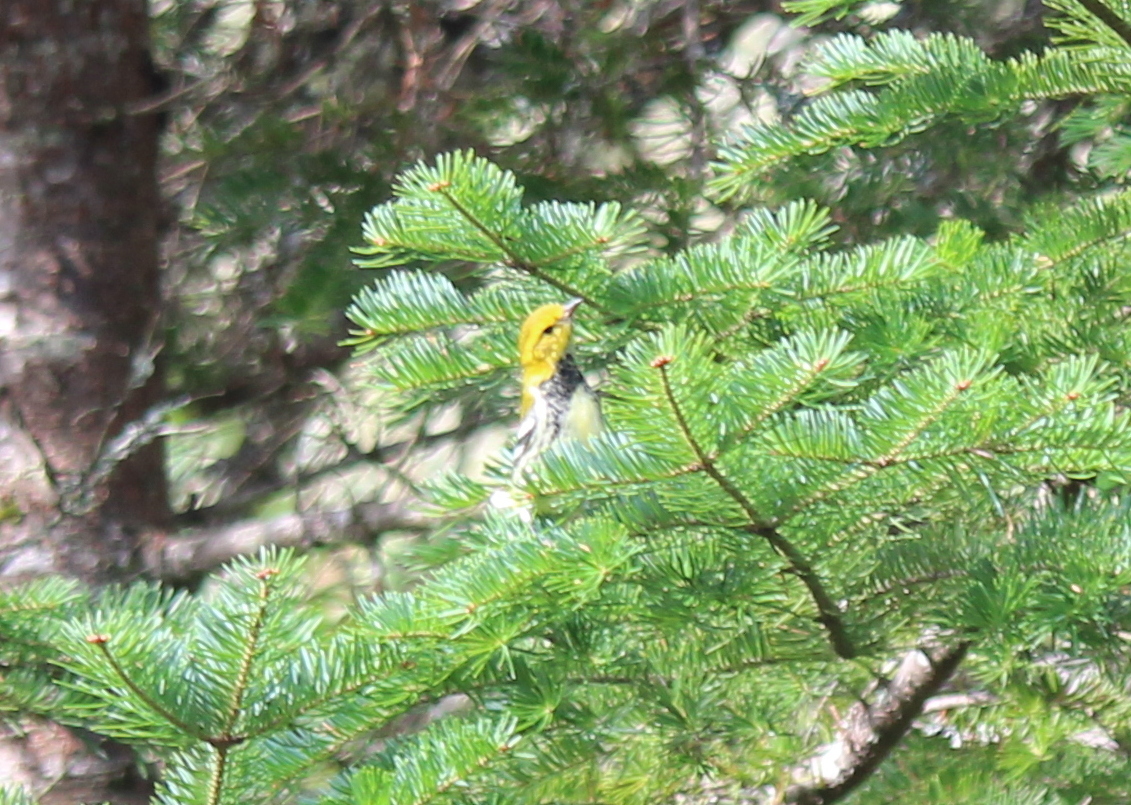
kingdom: Animalia
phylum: Chordata
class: Aves
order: Passeriformes
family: Parulidae
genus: Setophaga
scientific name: Setophaga virens
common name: Black-throated green warbler
